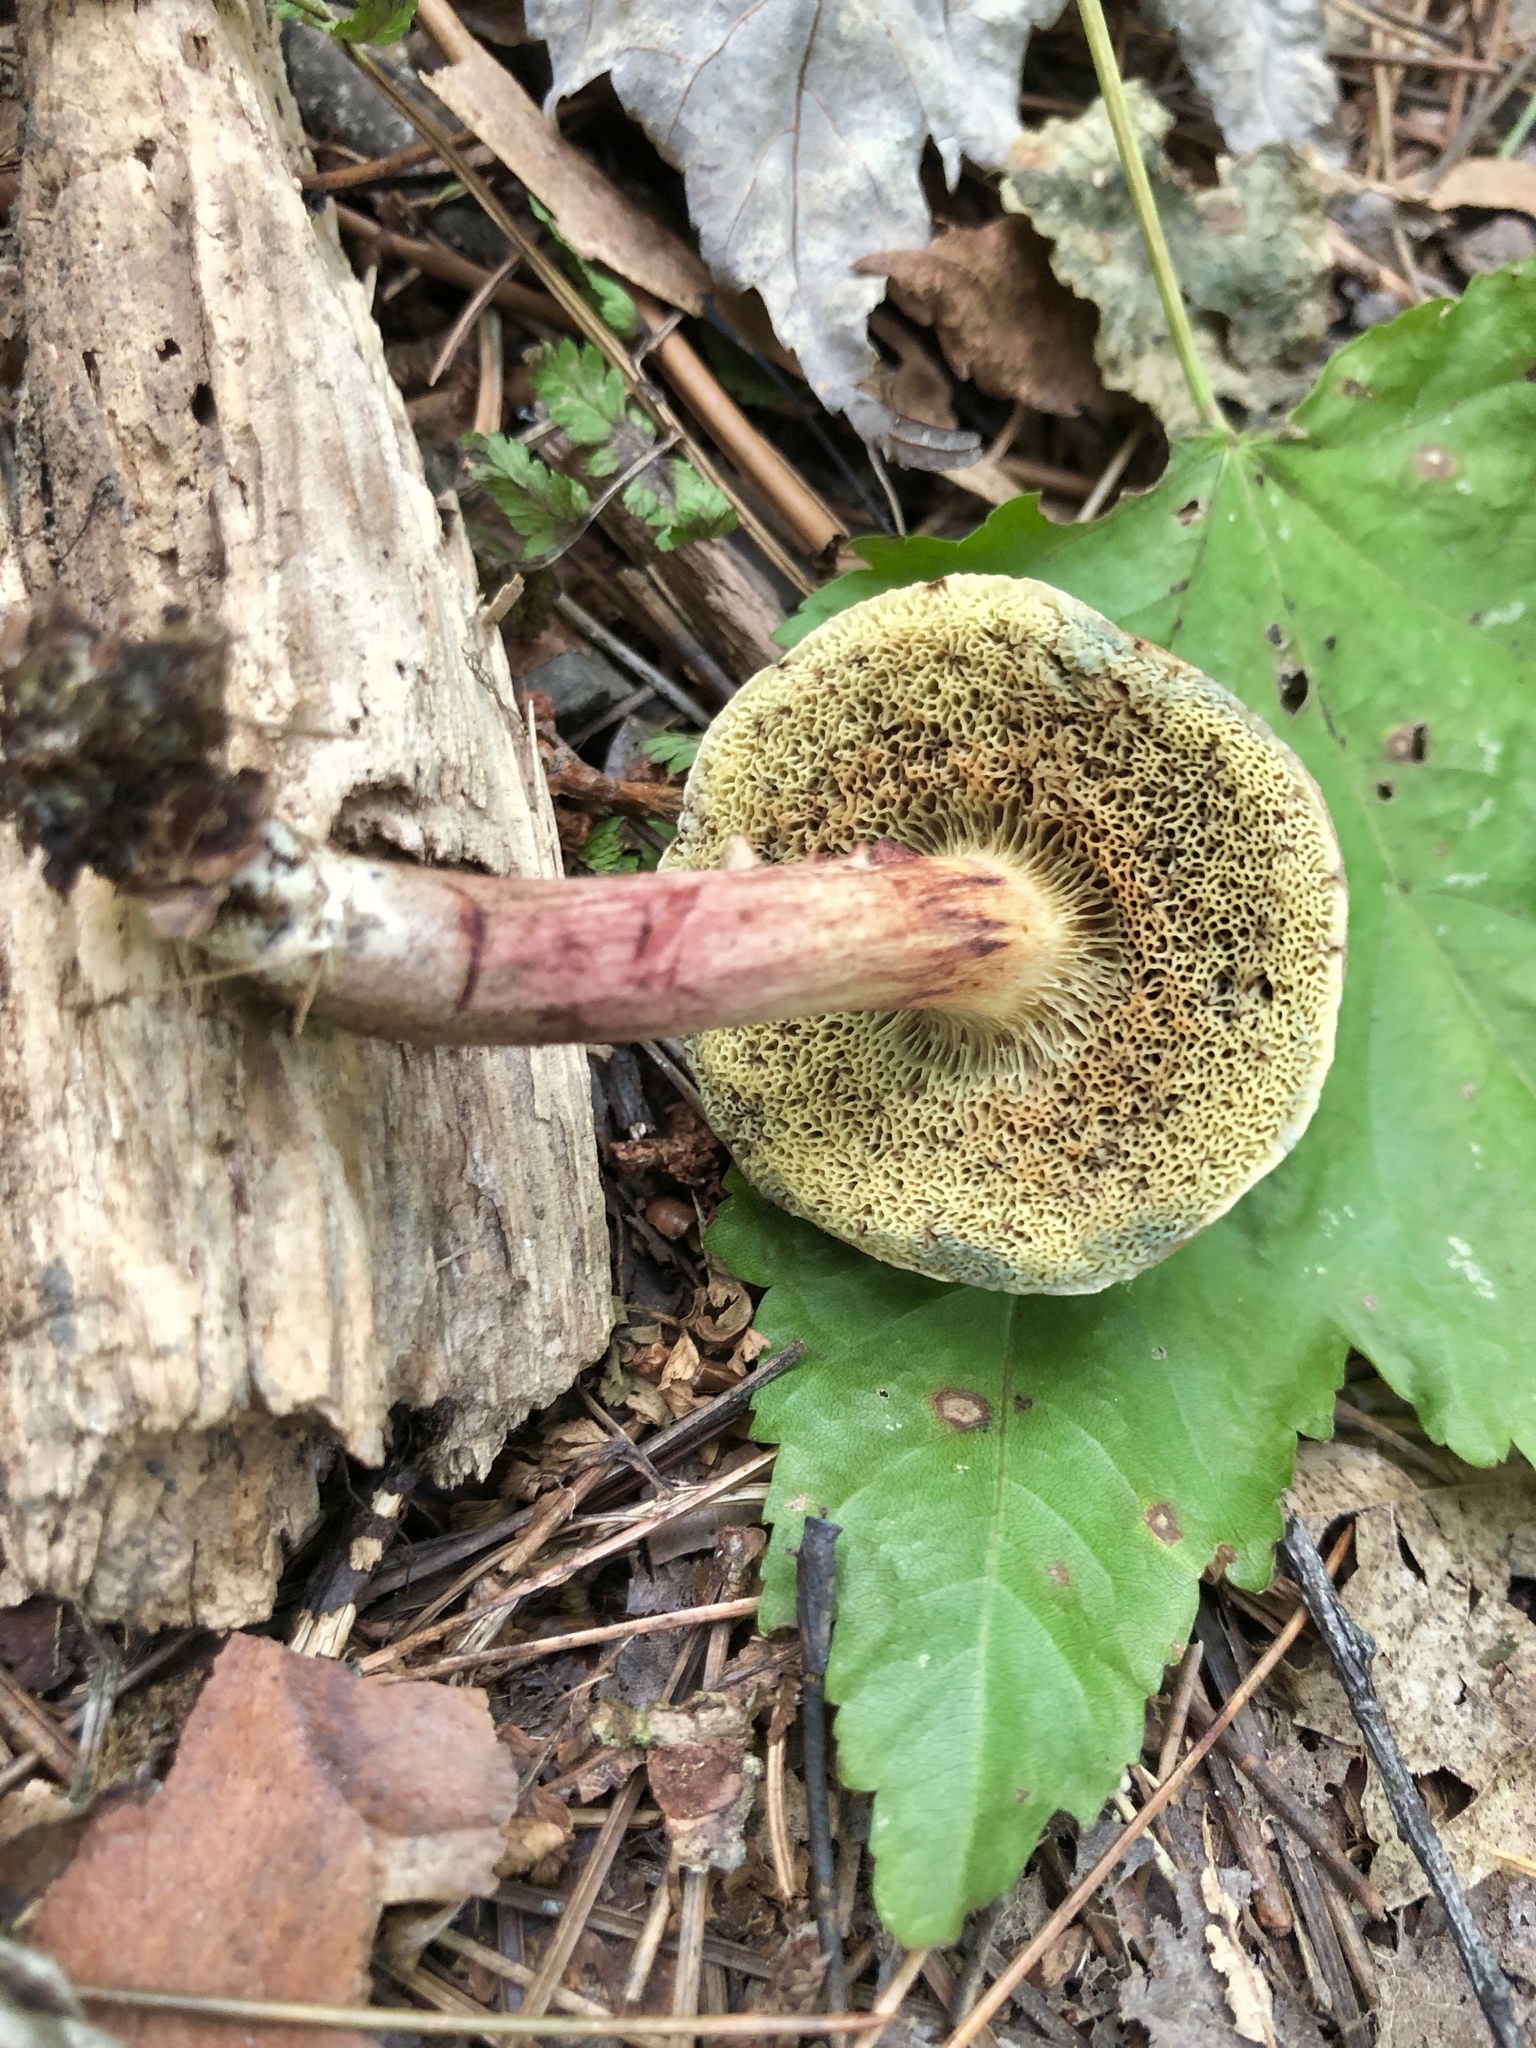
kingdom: Fungi
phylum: Basidiomycota
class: Agaricomycetes
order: Boletales
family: Boletaceae
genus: Xerocomellus
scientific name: Xerocomellus chrysenteron
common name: Red-cracking bolete
